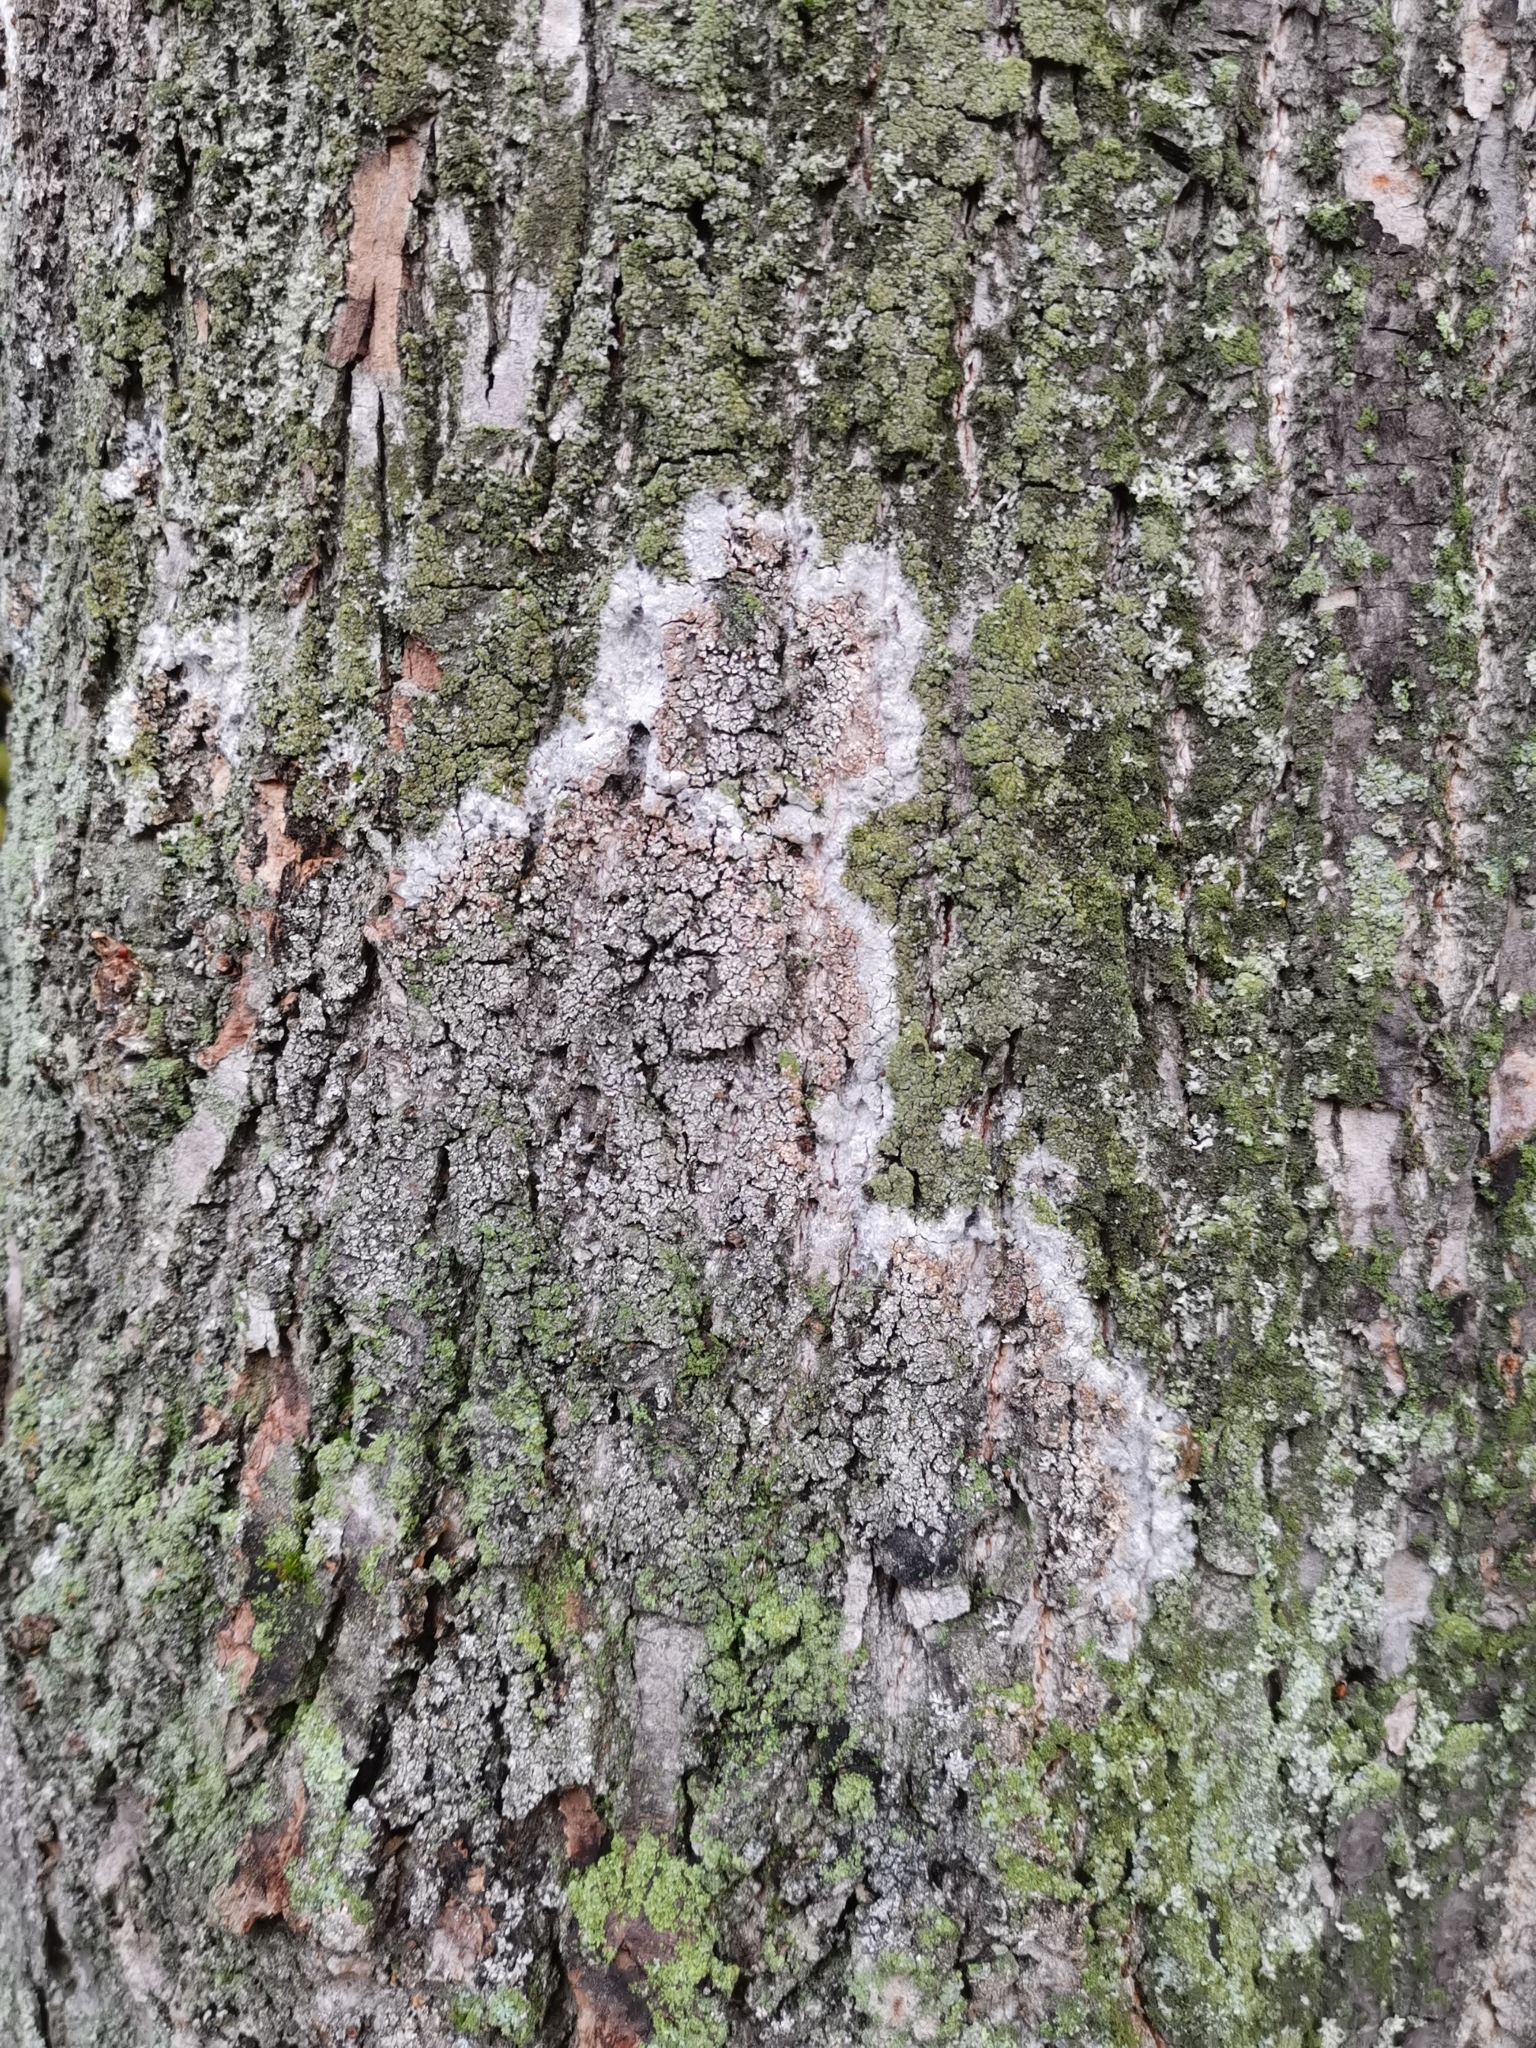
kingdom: Fungi
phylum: Basidiomycota
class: Agaricomycetes
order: Atheliales
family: Atheliaceae
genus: Athelia
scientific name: Athelia arachnoidea
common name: Candelabra duster
